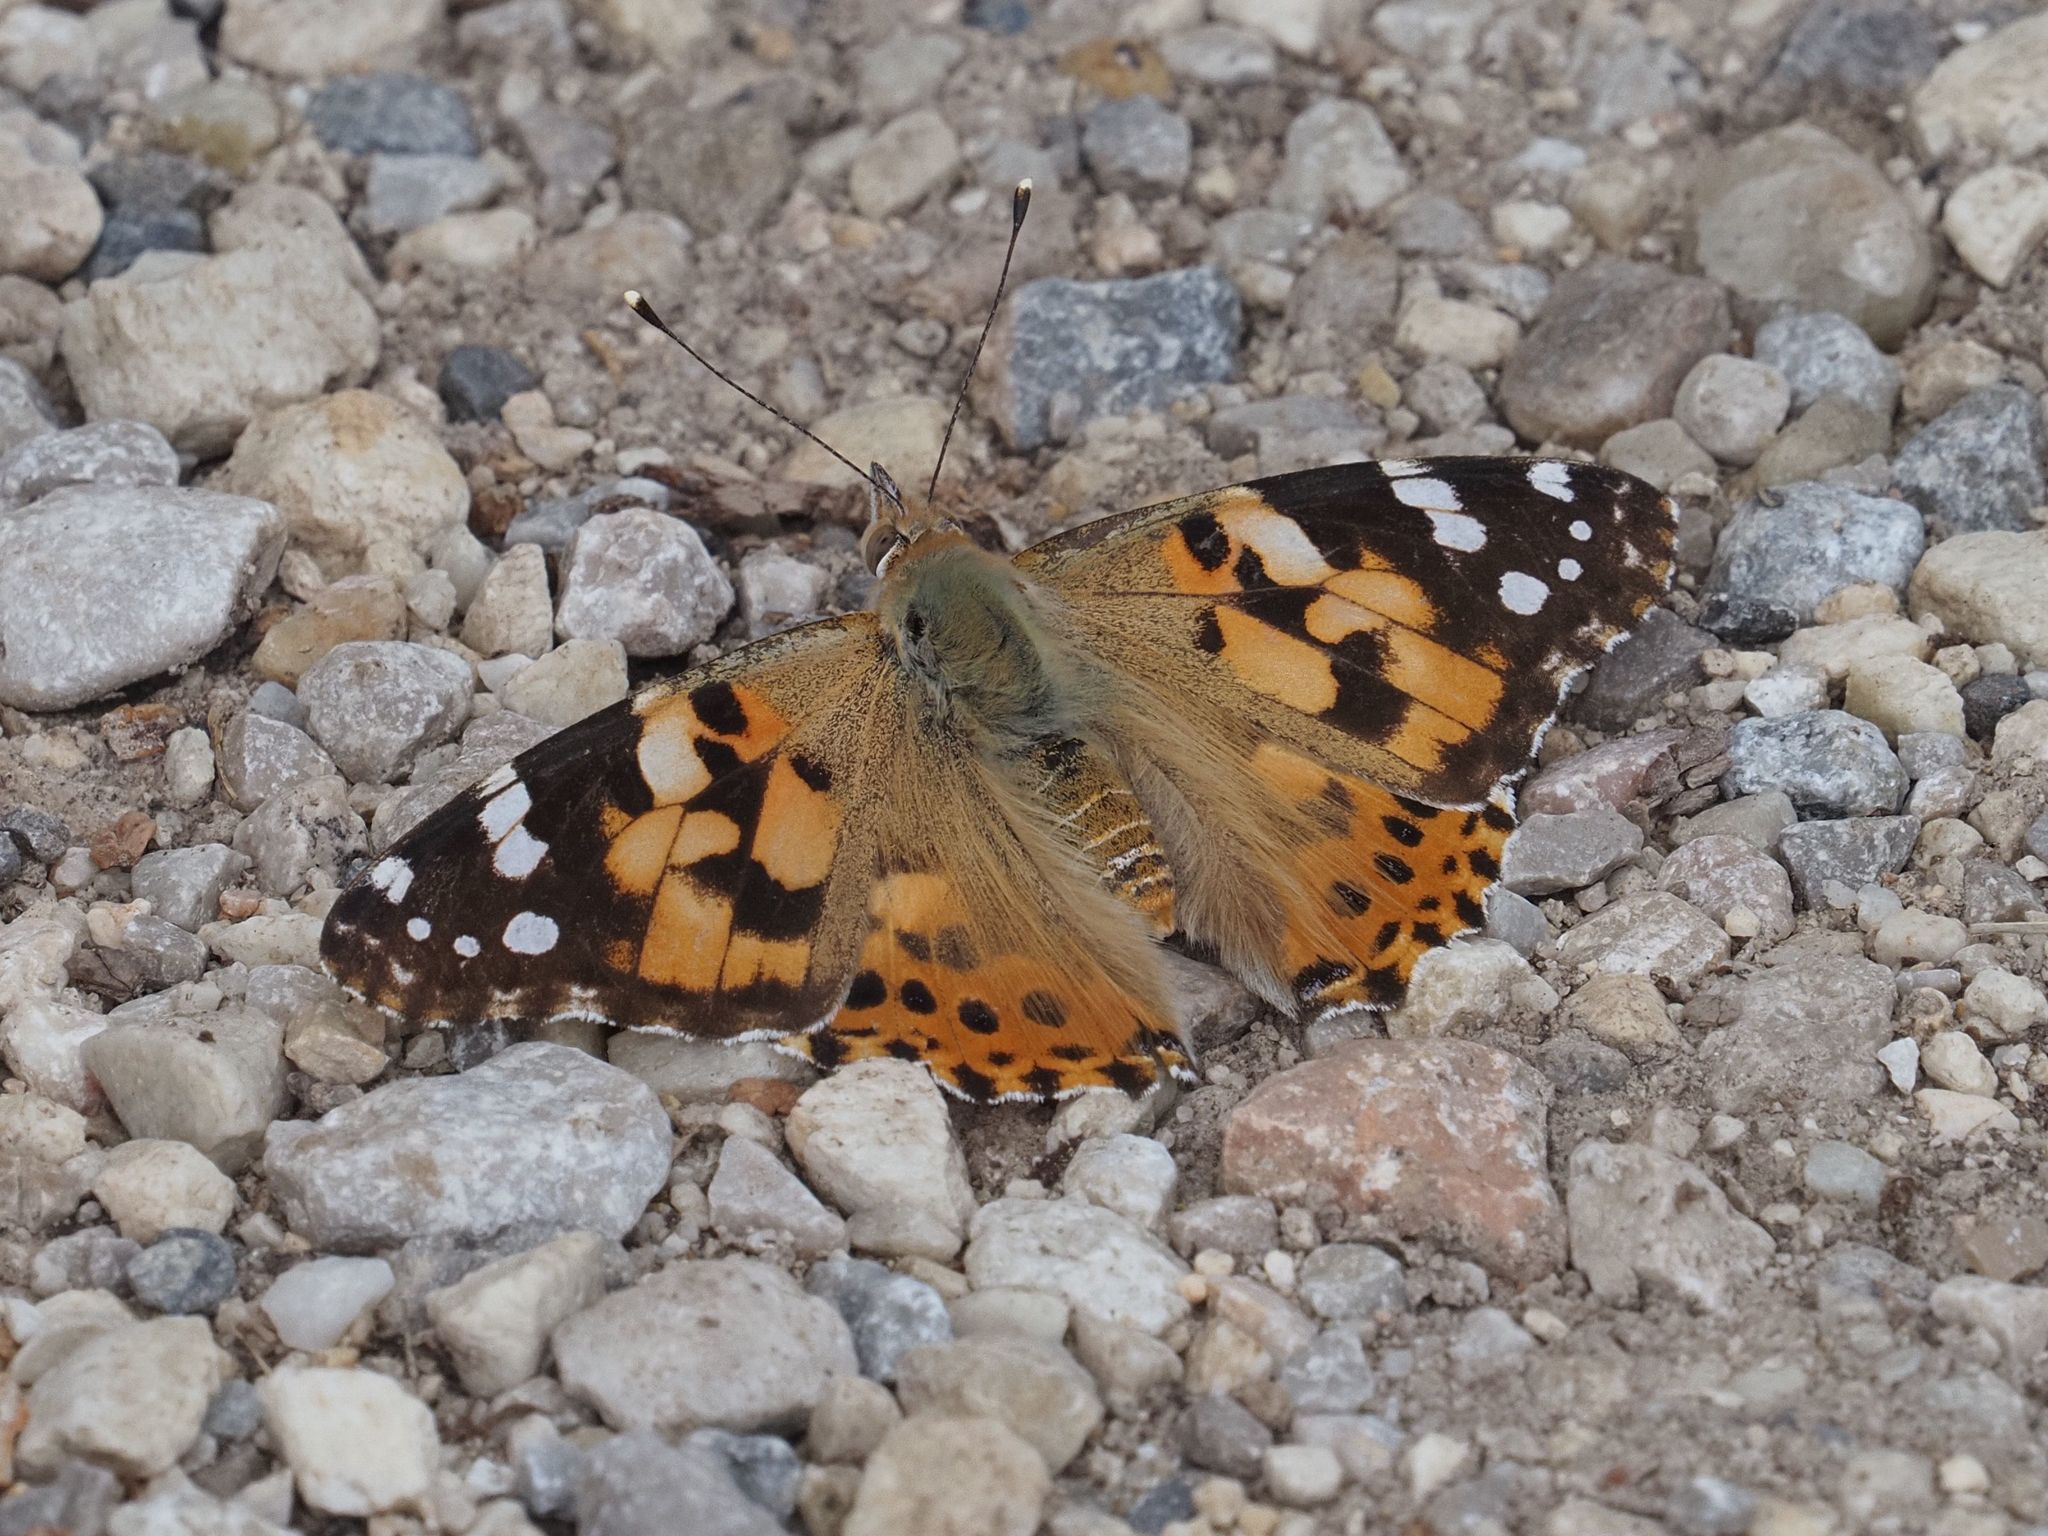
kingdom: Animalia
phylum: Arthropoda
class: Insecta
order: Lepidoptera
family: Nymphalidae
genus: Vanessa
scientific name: Vanessa cardui
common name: Painted lady
